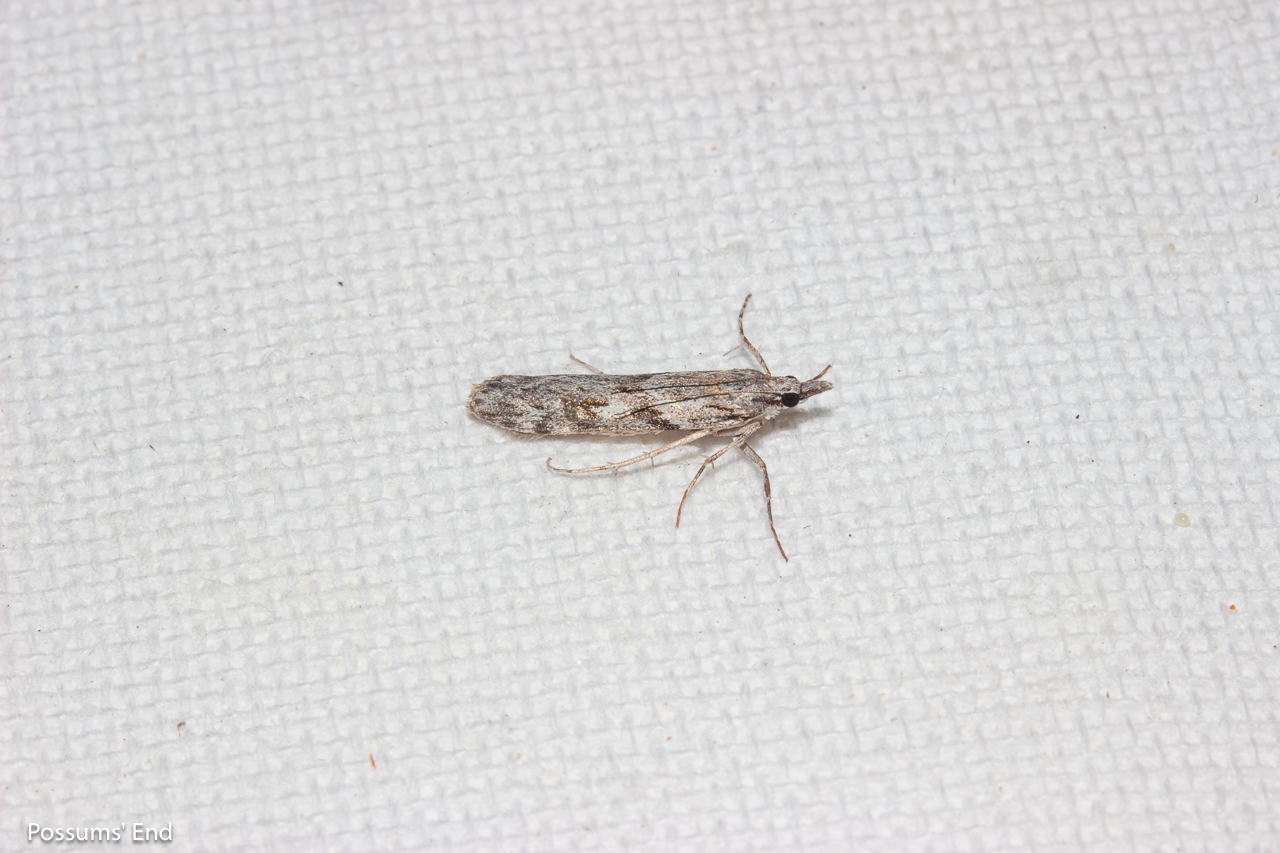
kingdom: Animalia
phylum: Arthropoda
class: Insecta
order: Lepidoptera
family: Crambidae
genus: Scoparia
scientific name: Scoparia halopis
